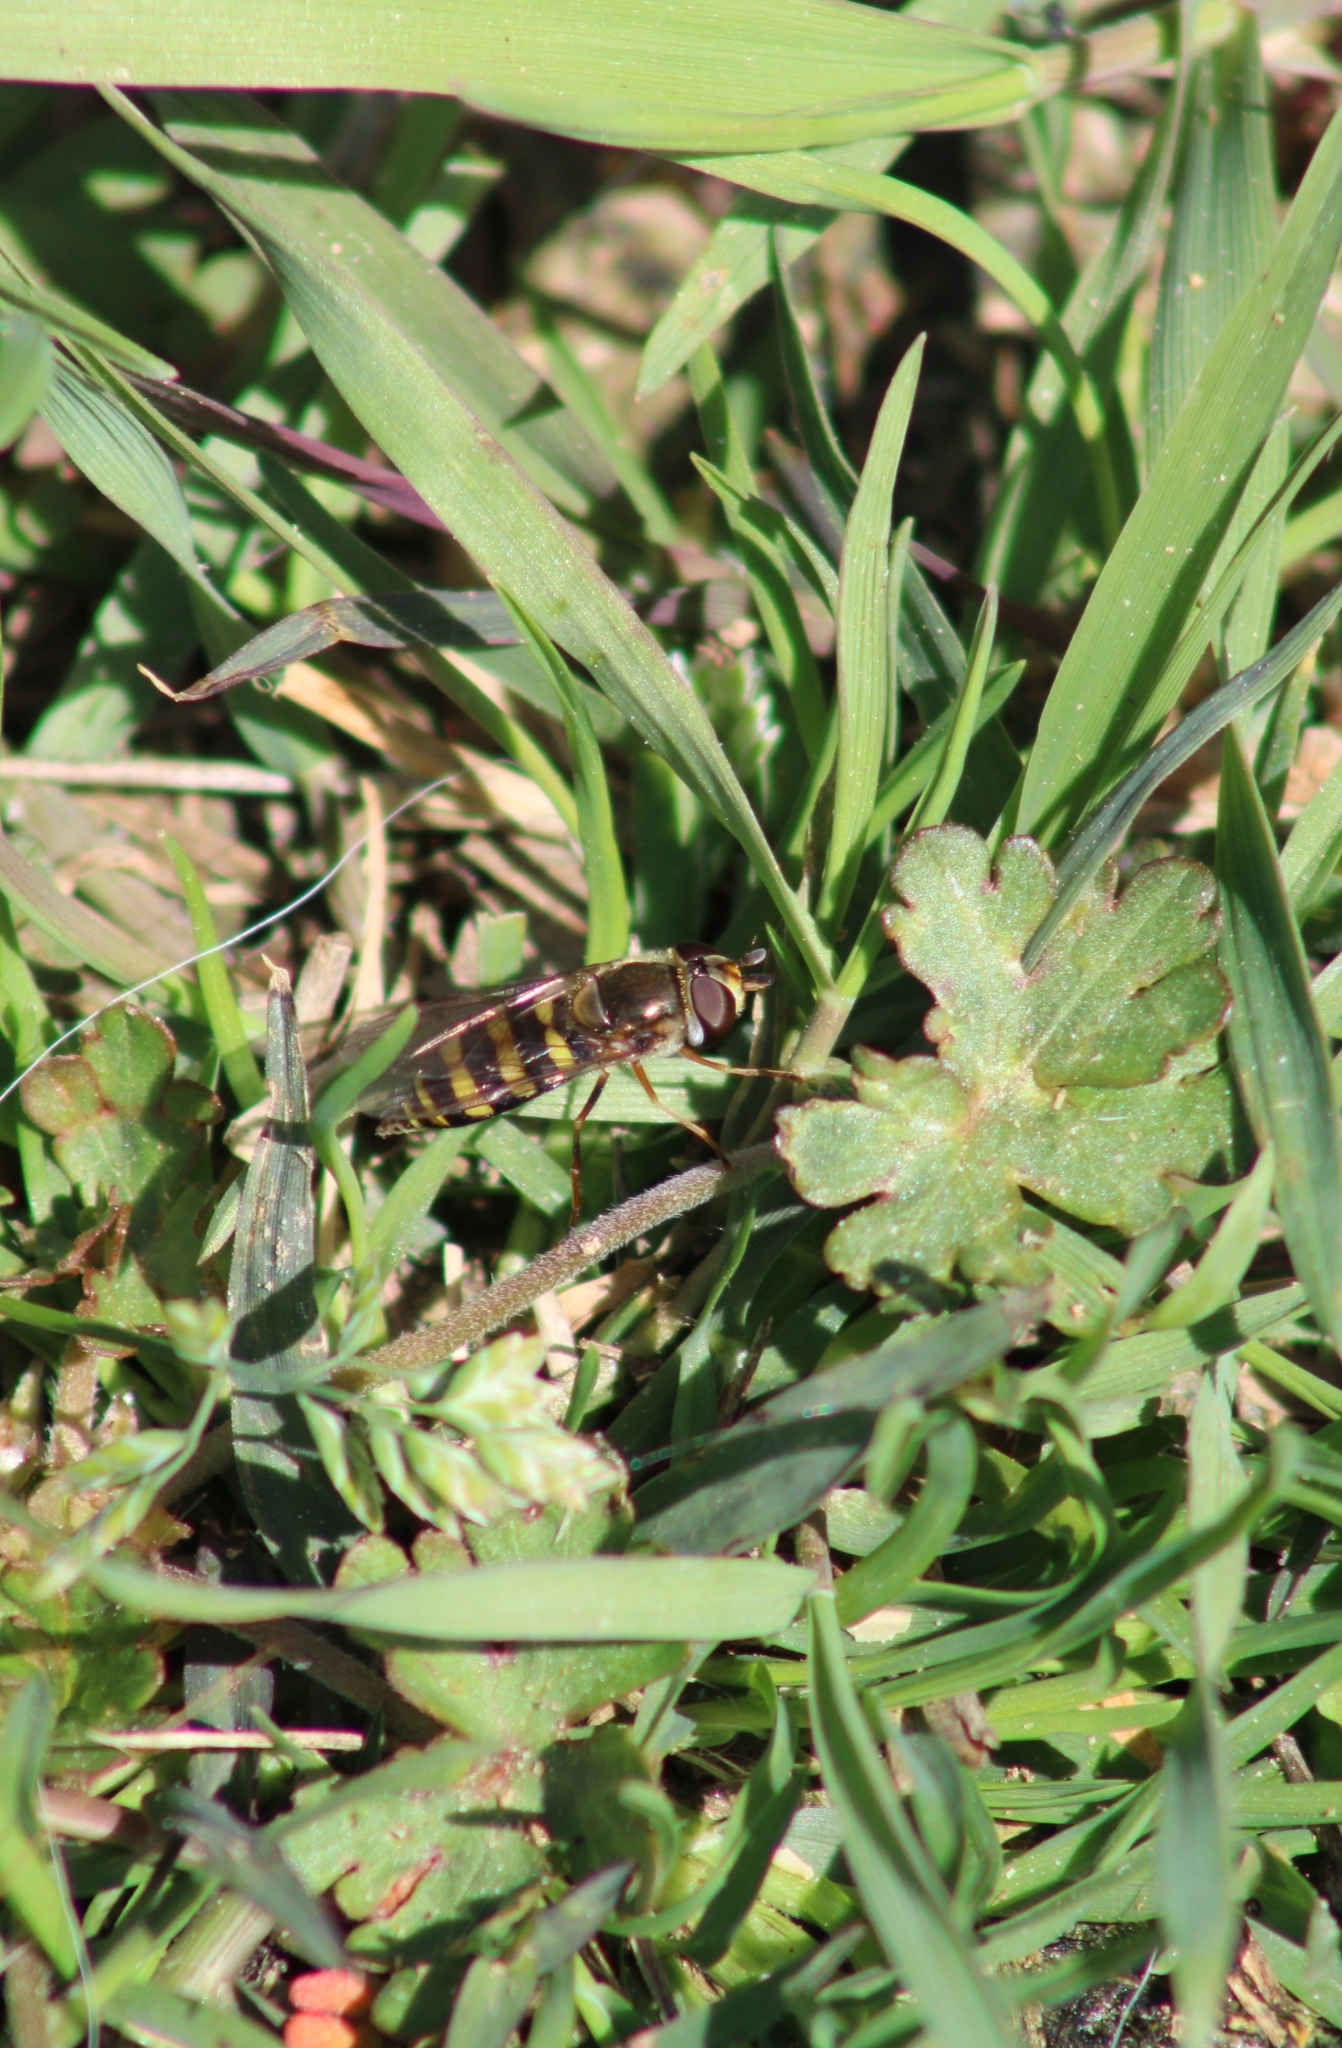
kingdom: Animalia
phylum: Arthropoda
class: Insecta
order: Diptera
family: Syrphidae
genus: Eupeodes
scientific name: Eupeodes
